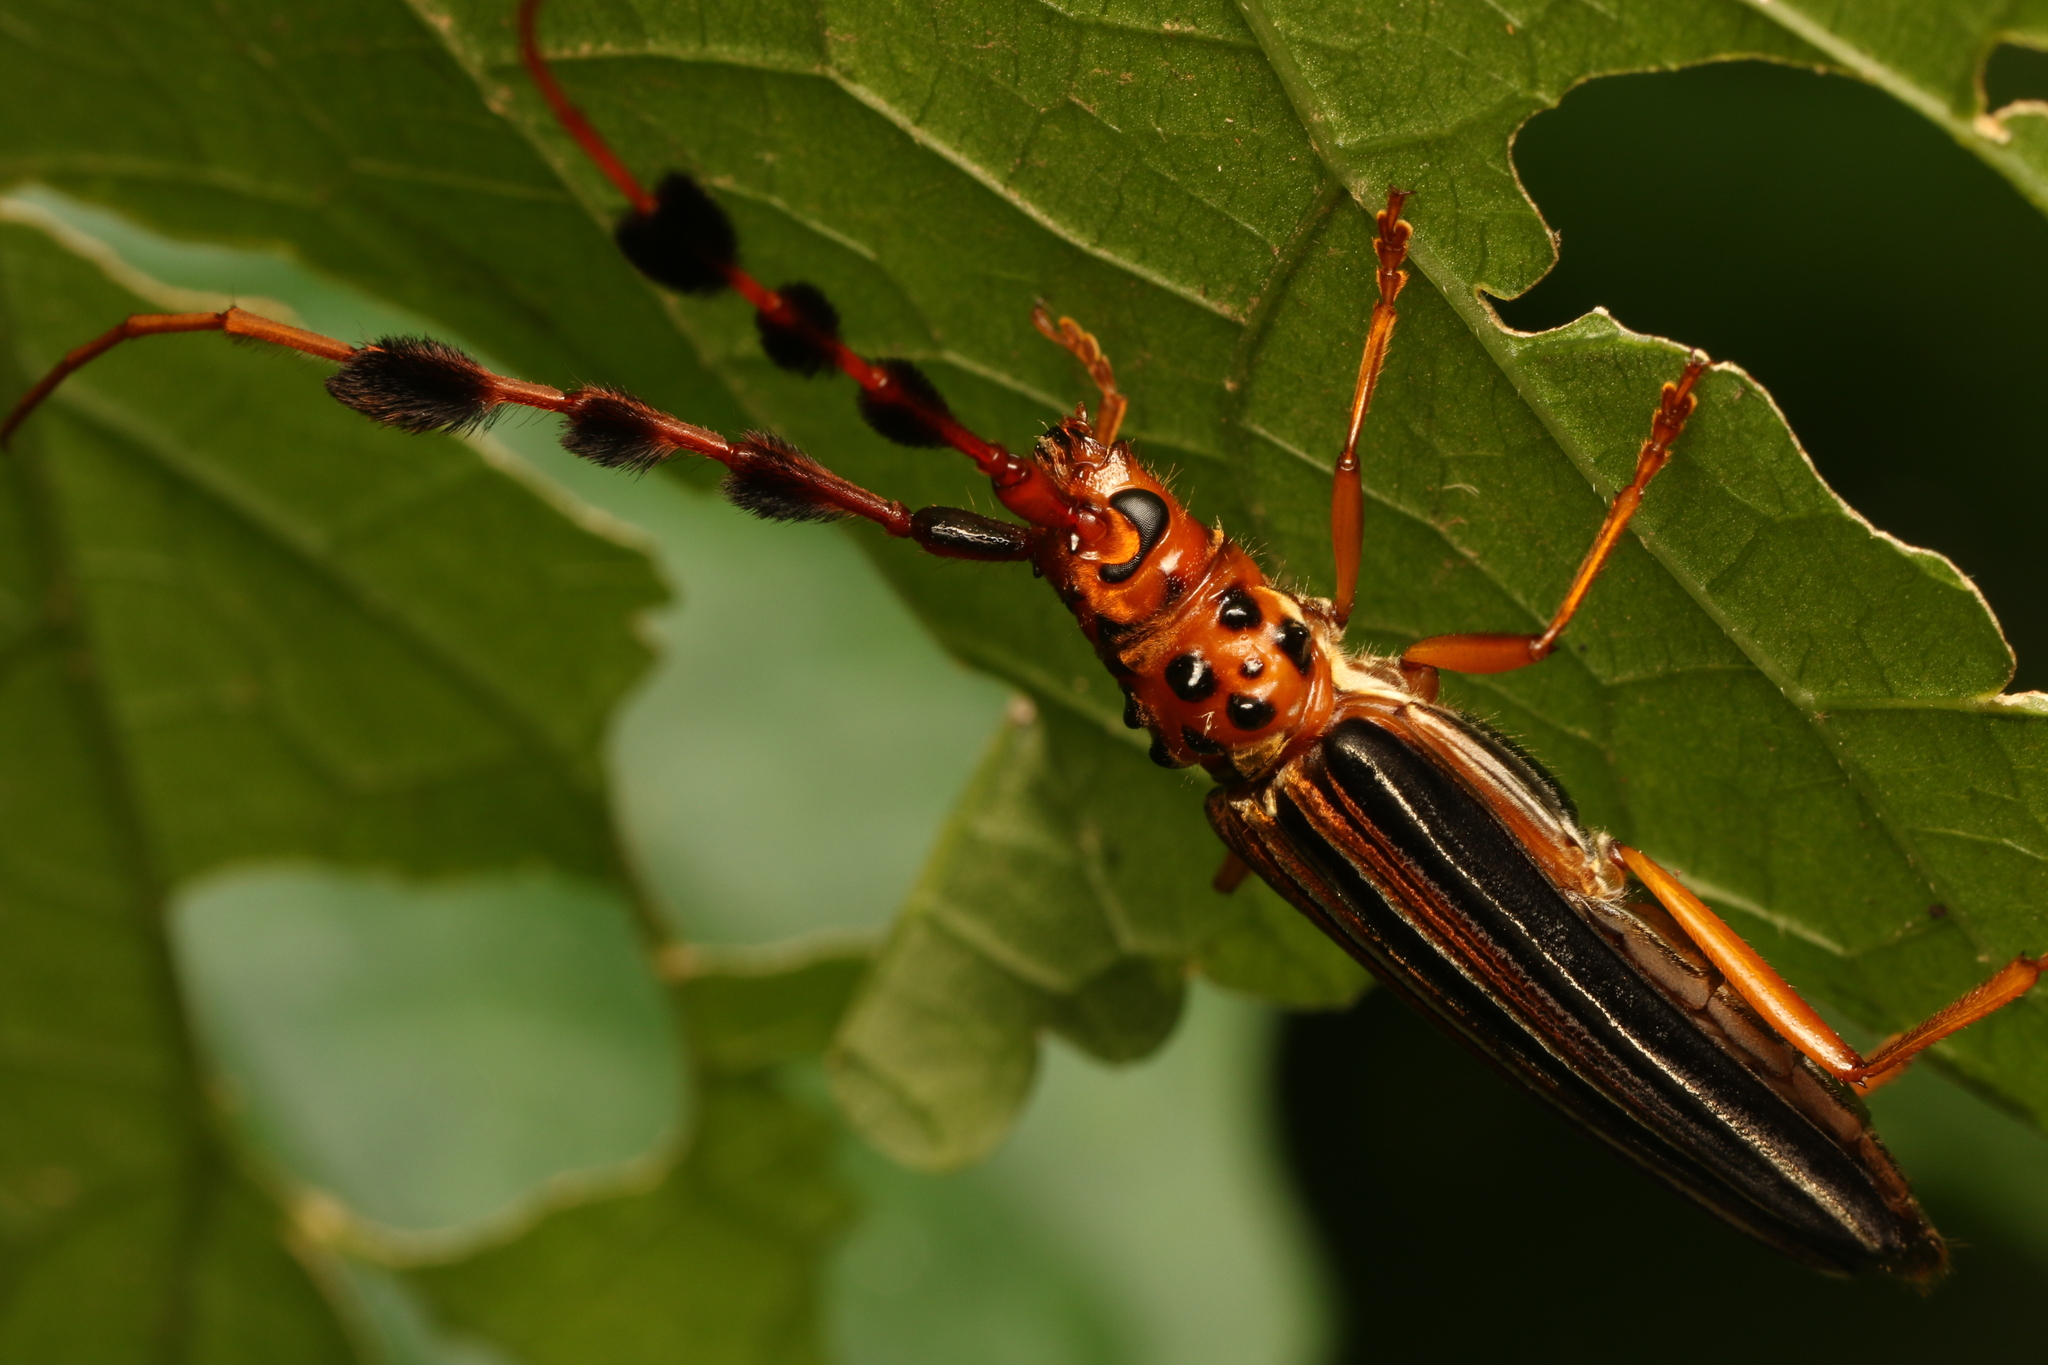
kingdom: Animalia
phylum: Arthropoda
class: Insecta
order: Coleoptera
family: Cerambycidae
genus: Cosmocerus
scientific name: Cosmocerus strigosus
